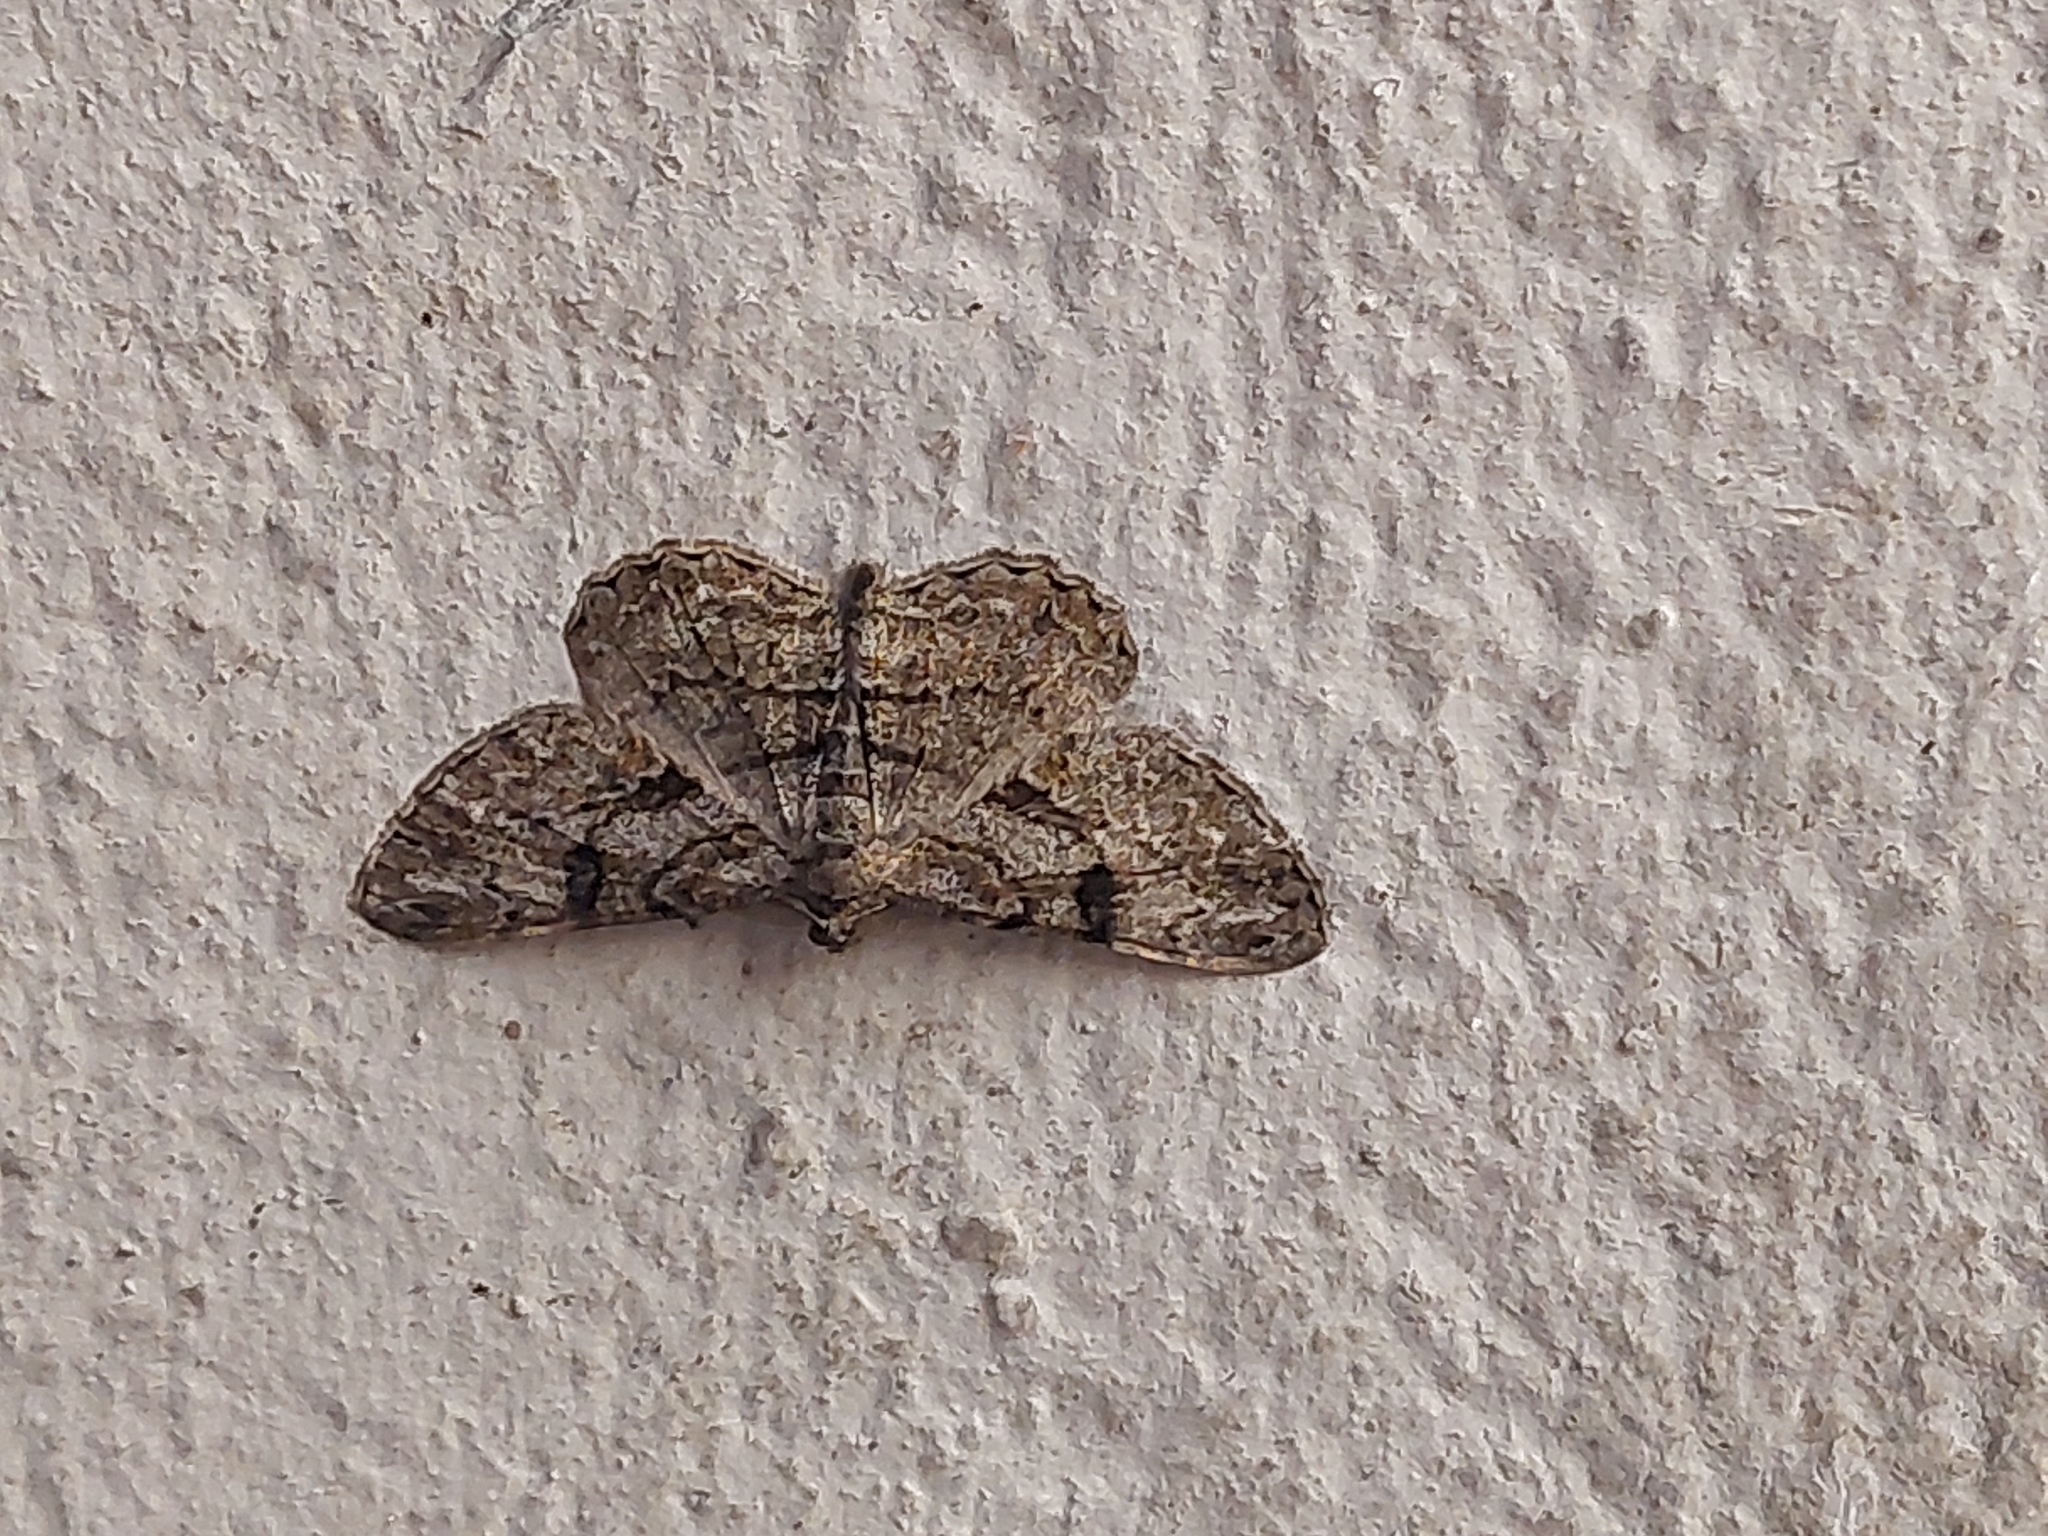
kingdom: Animalia
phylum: Arthropoda
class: Insecta
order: Lepidoptera
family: Geometridae
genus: Peribatodes
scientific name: Peribatodes rhomboidaria
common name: Willow beauty
